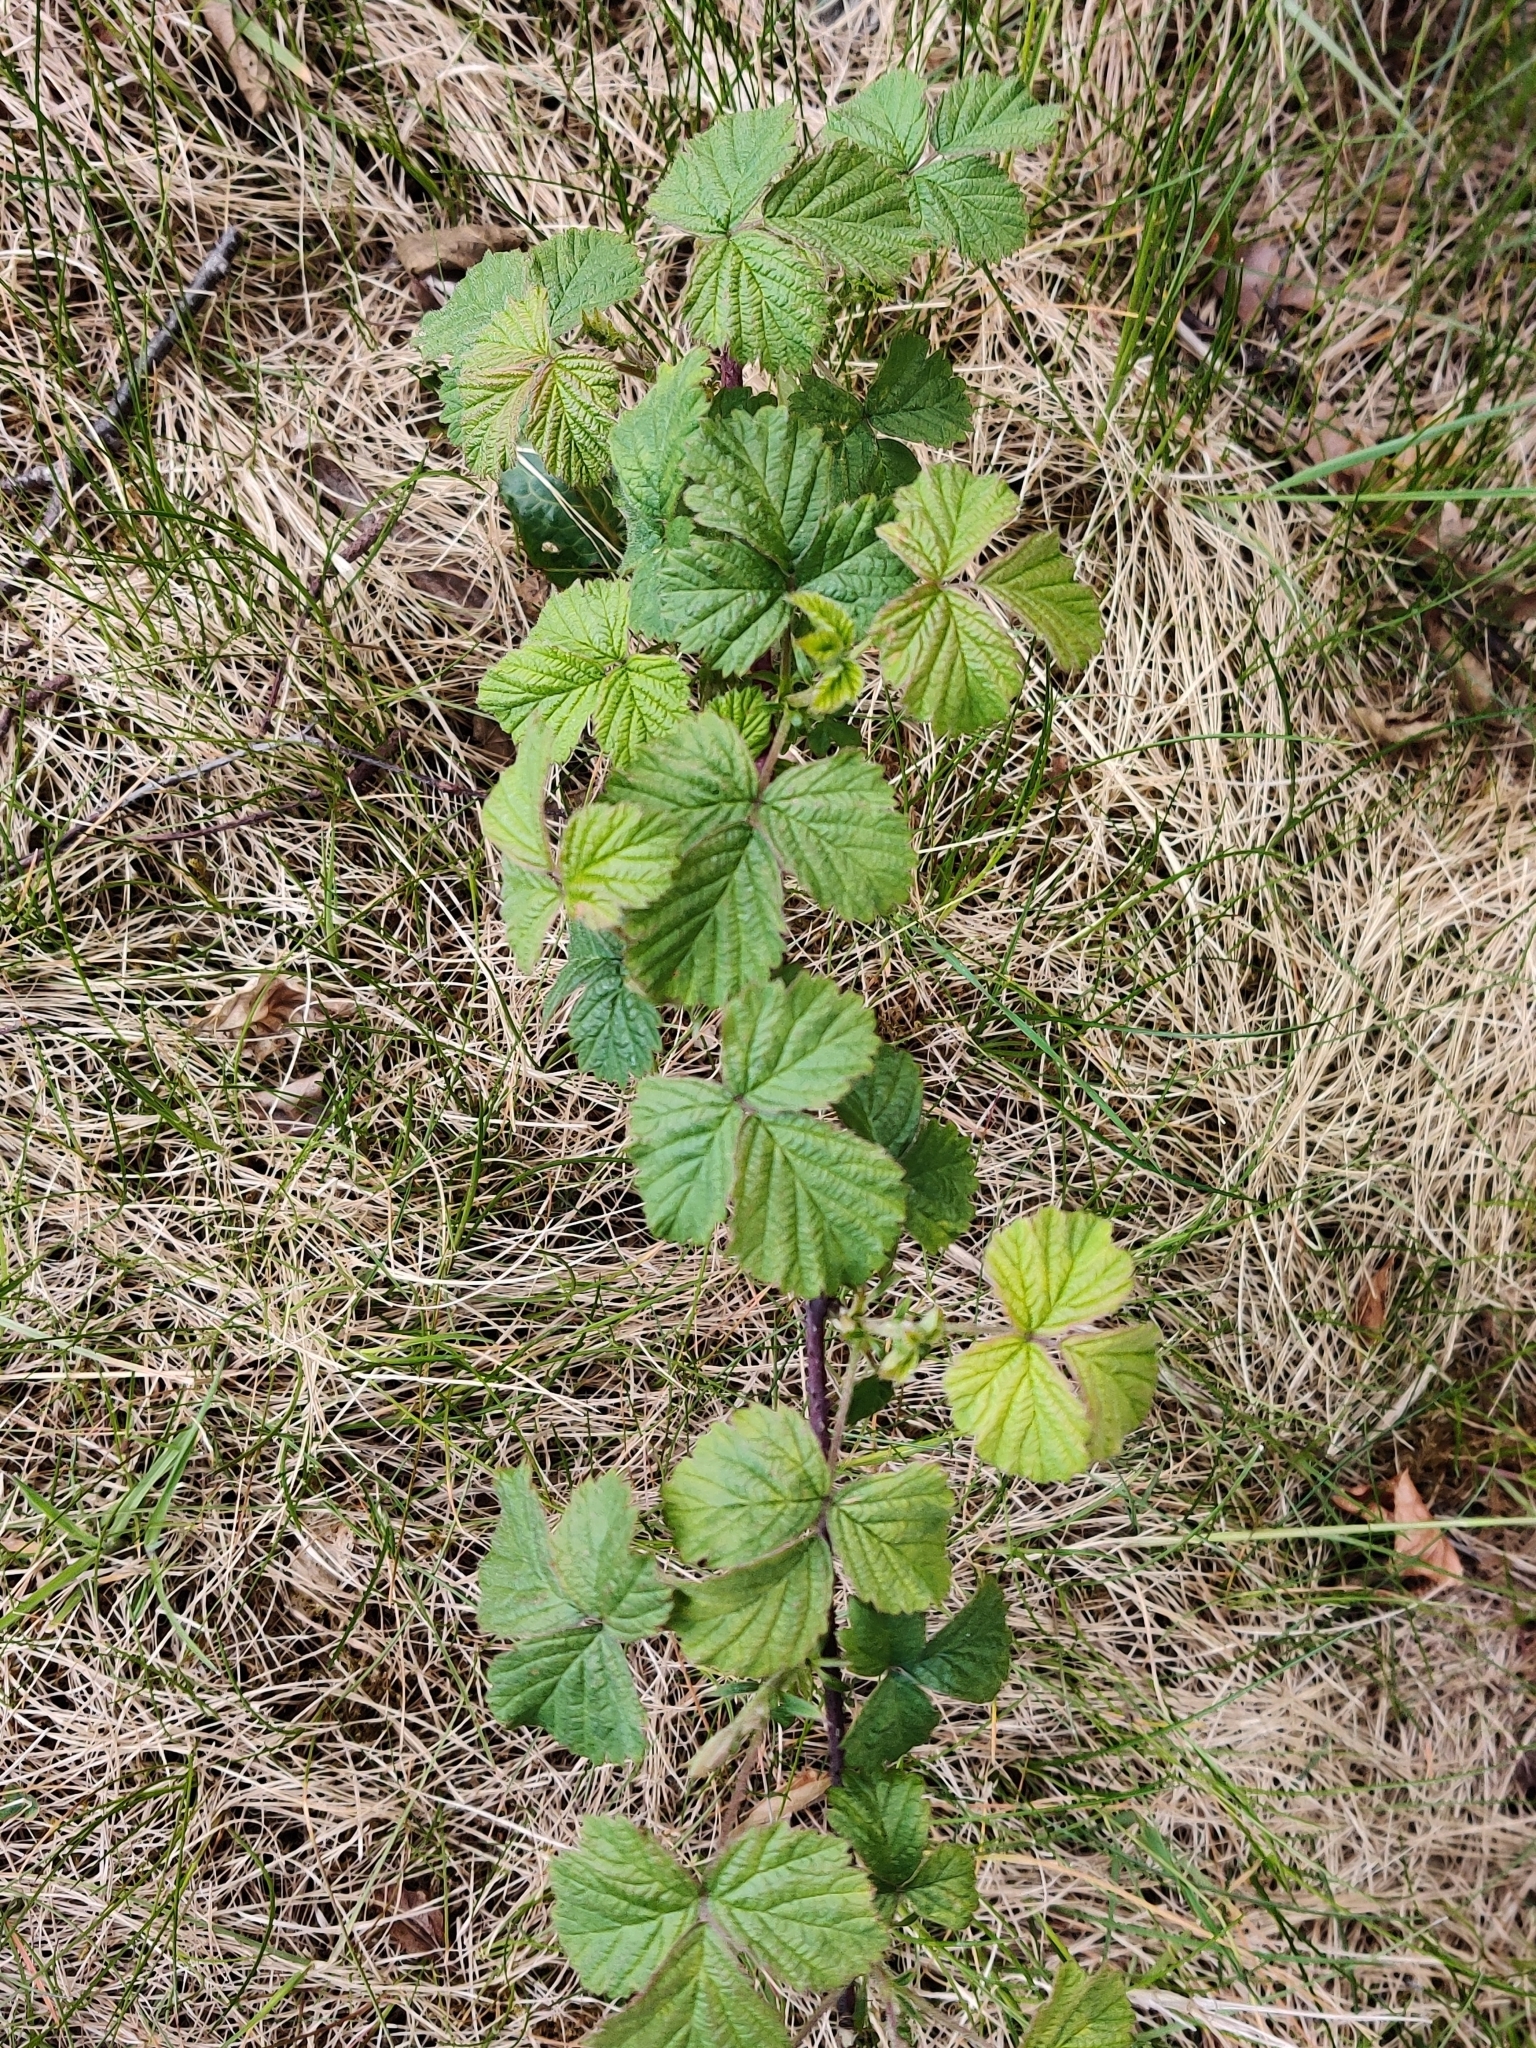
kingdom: Plantae
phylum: Tracheophyta
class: Magnoliopsida
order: Rosales
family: Rosaceae
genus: Rubus
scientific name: Rubus fruticosus
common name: Blackberry, bramble
